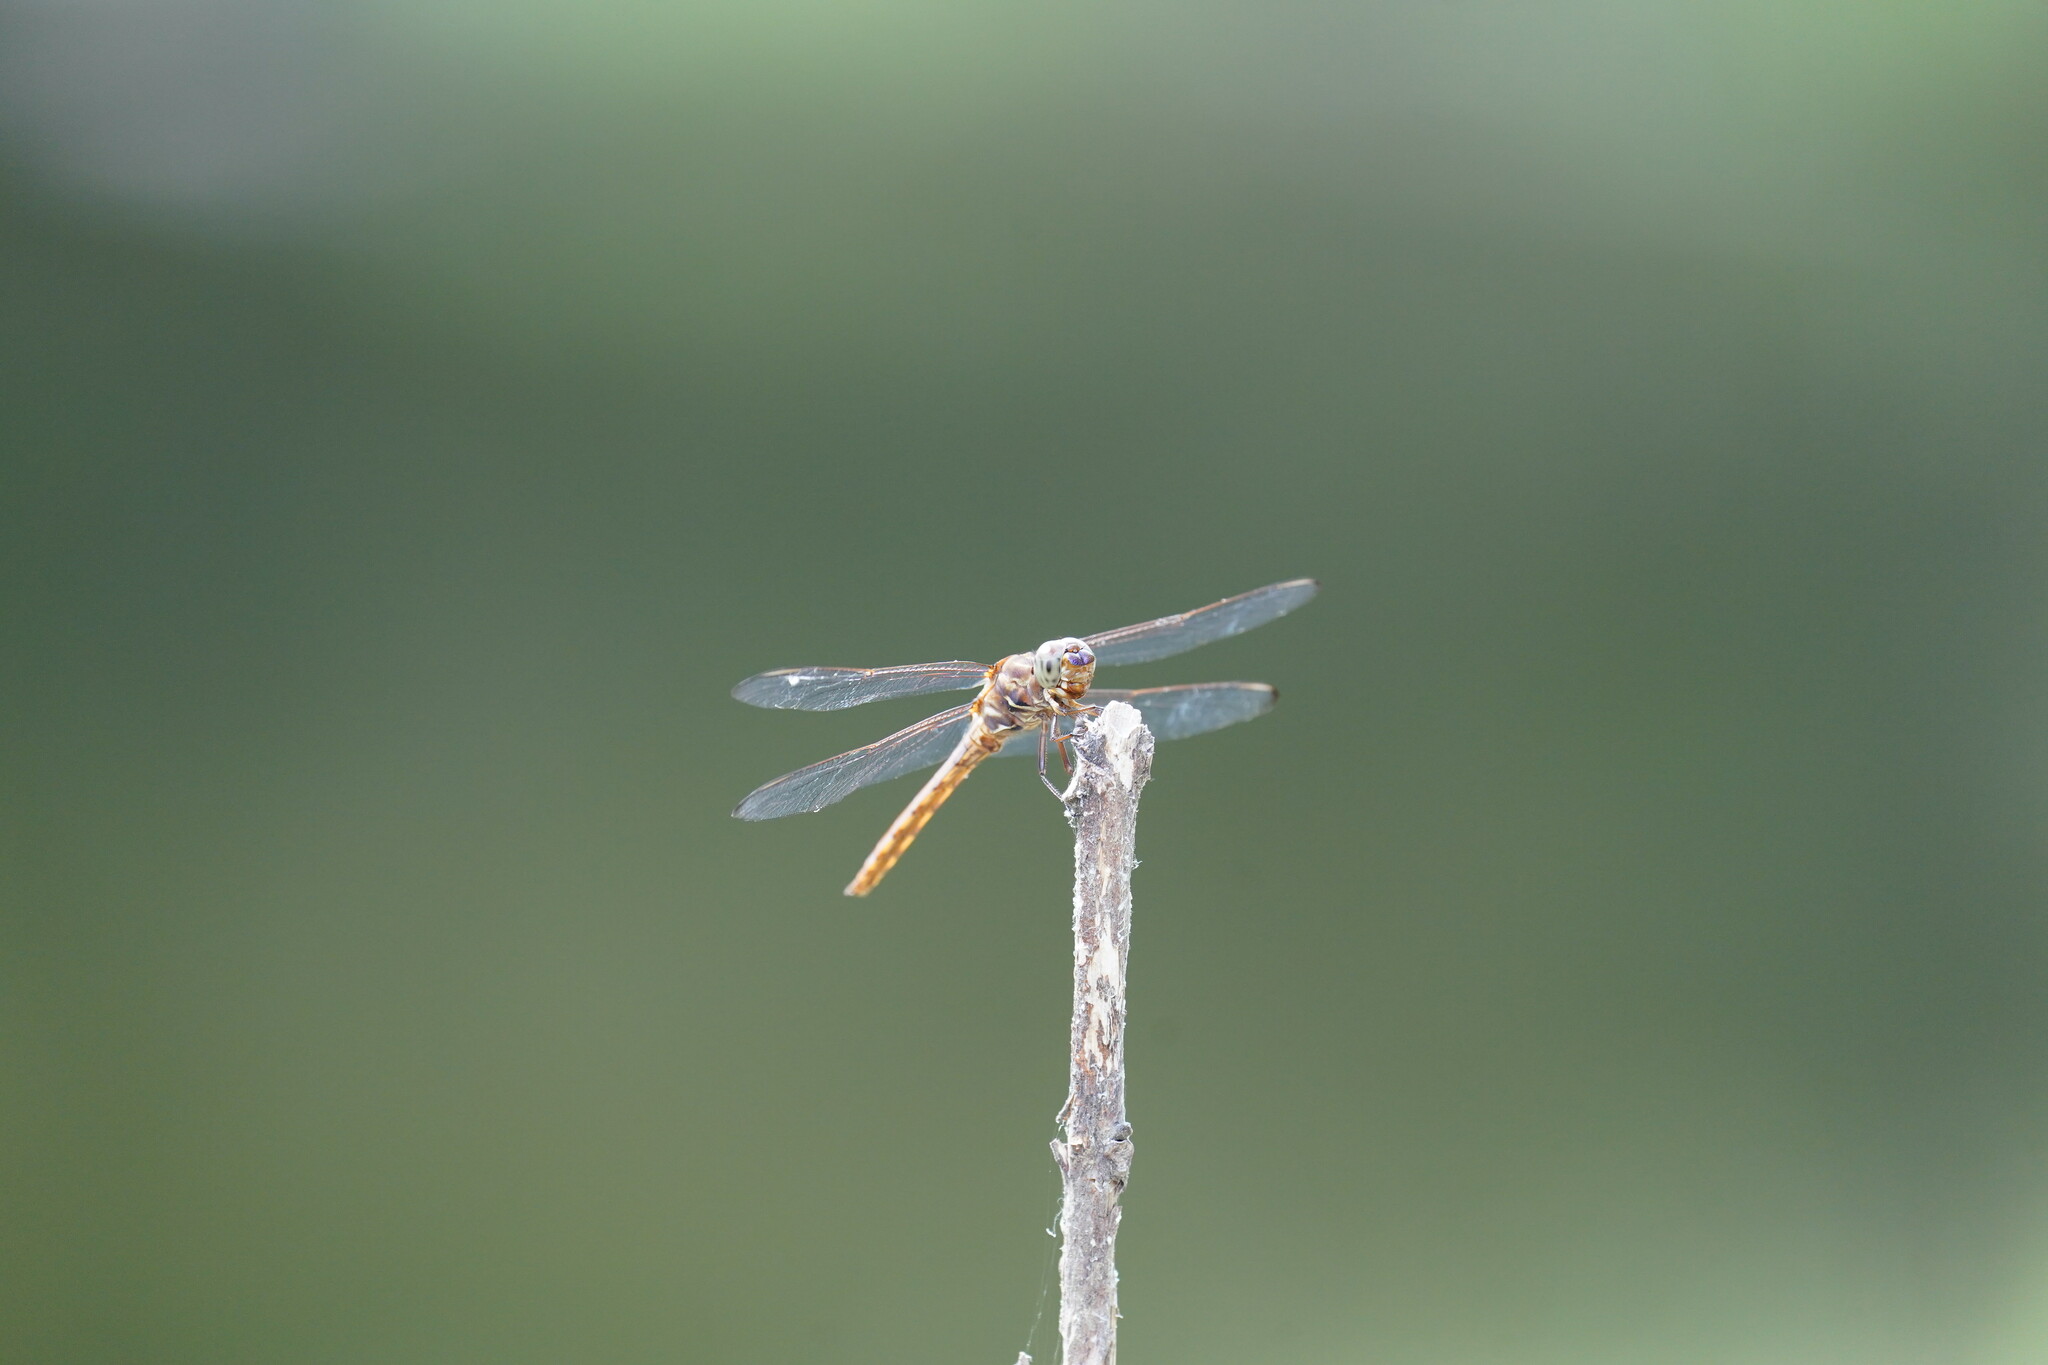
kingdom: Animalia
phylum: Arthropoda
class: Insecta
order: Odonata
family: Libellulidae
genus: Orthemis
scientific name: Orthemis ferruginea
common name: Roseate skimmer
